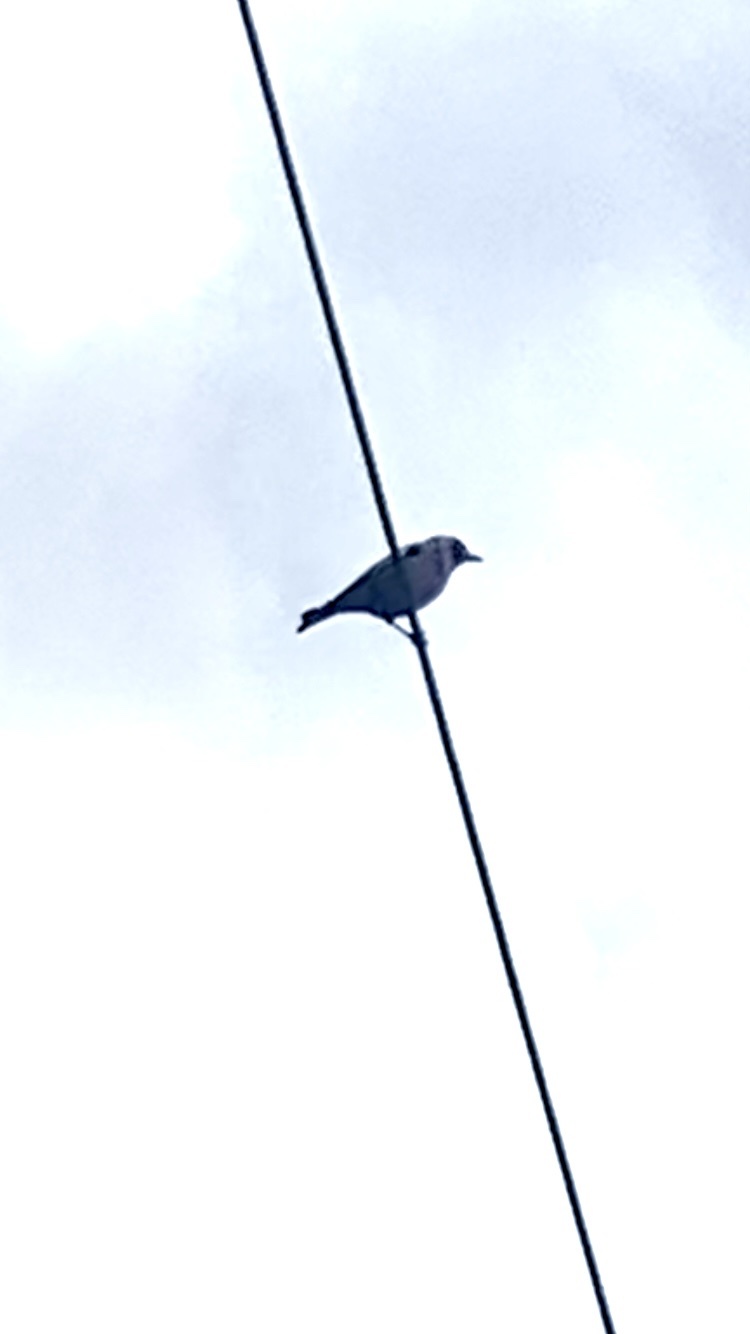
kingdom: Animalia
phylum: Chordata
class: Aves
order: Passeriformes
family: Fringillidae
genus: Carduelis
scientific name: Carduelis carduelis
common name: European goldfinch
